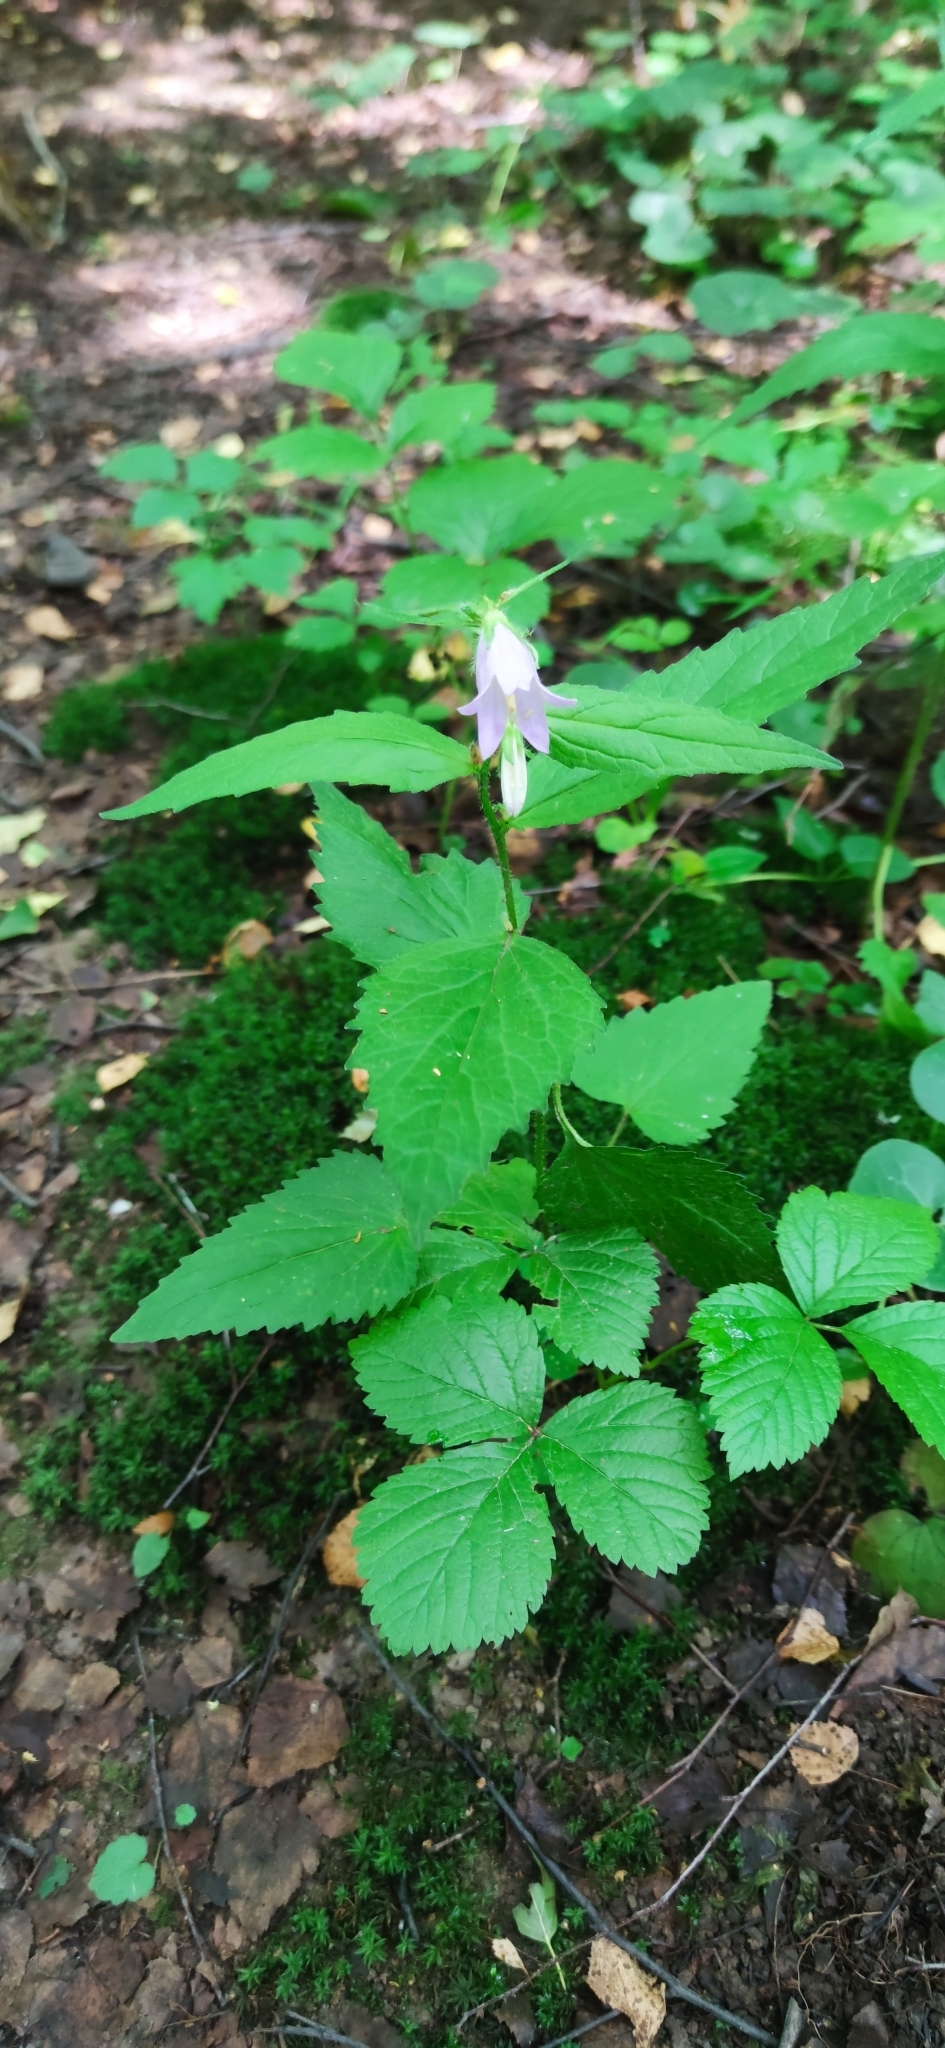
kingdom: Plantae
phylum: Tracheophyta
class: Magnoliopsida
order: Asterales
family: Campanulaceae
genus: Campanula
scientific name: Campanula trachelium
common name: Nettle-leaved bellflower
